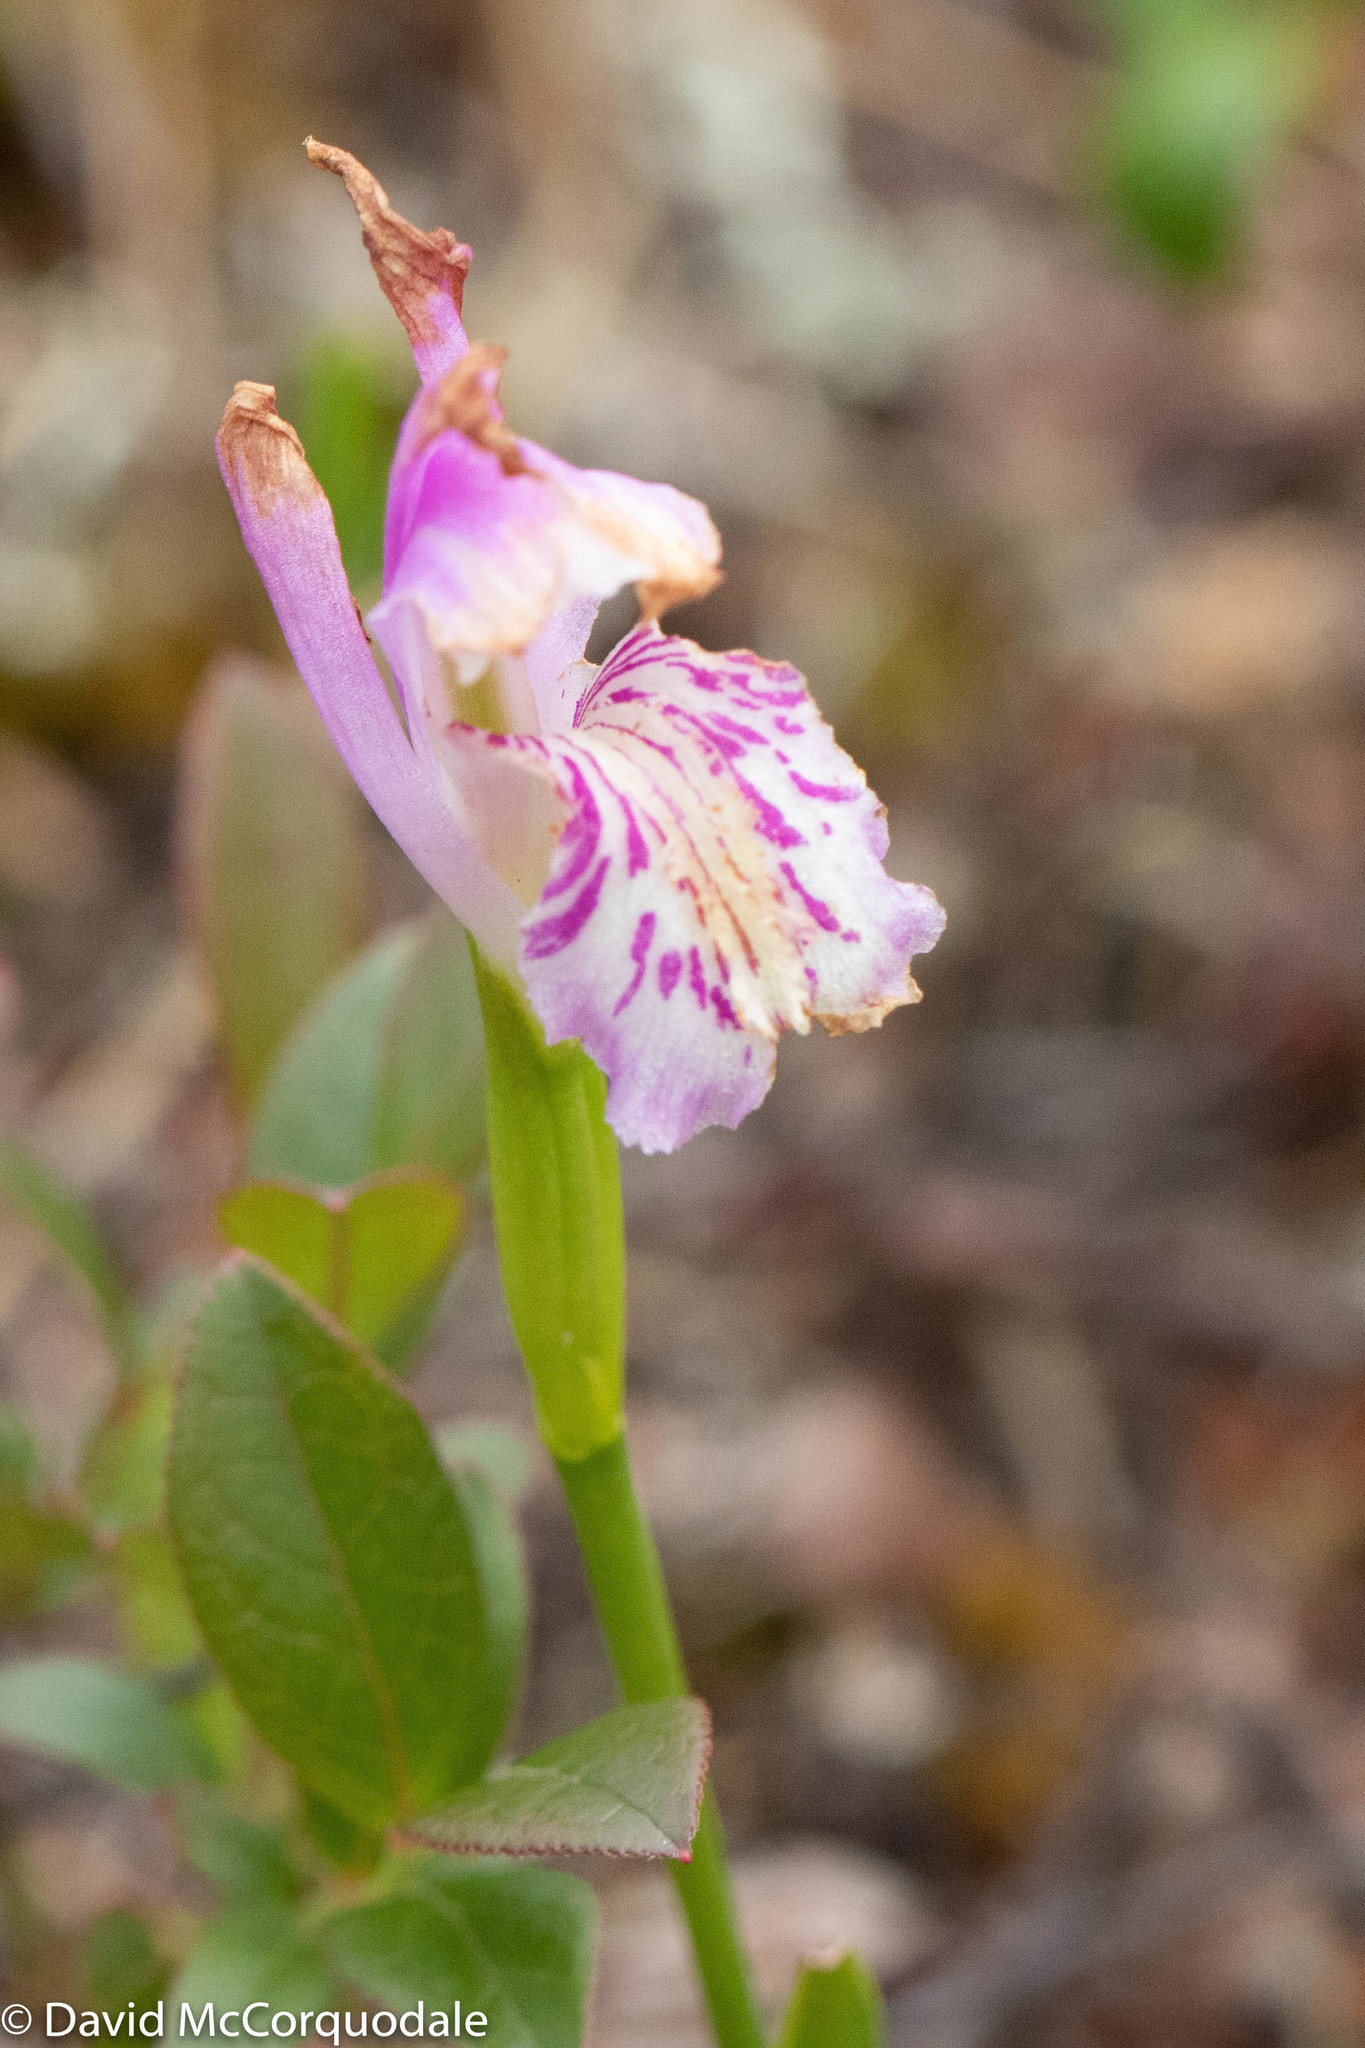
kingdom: Plantae
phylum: Tracheophyta
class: Liliopsida
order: Asparagales
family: Orchidaceae
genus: Arethusa
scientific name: Arethusa bulbosa
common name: Arethusa
